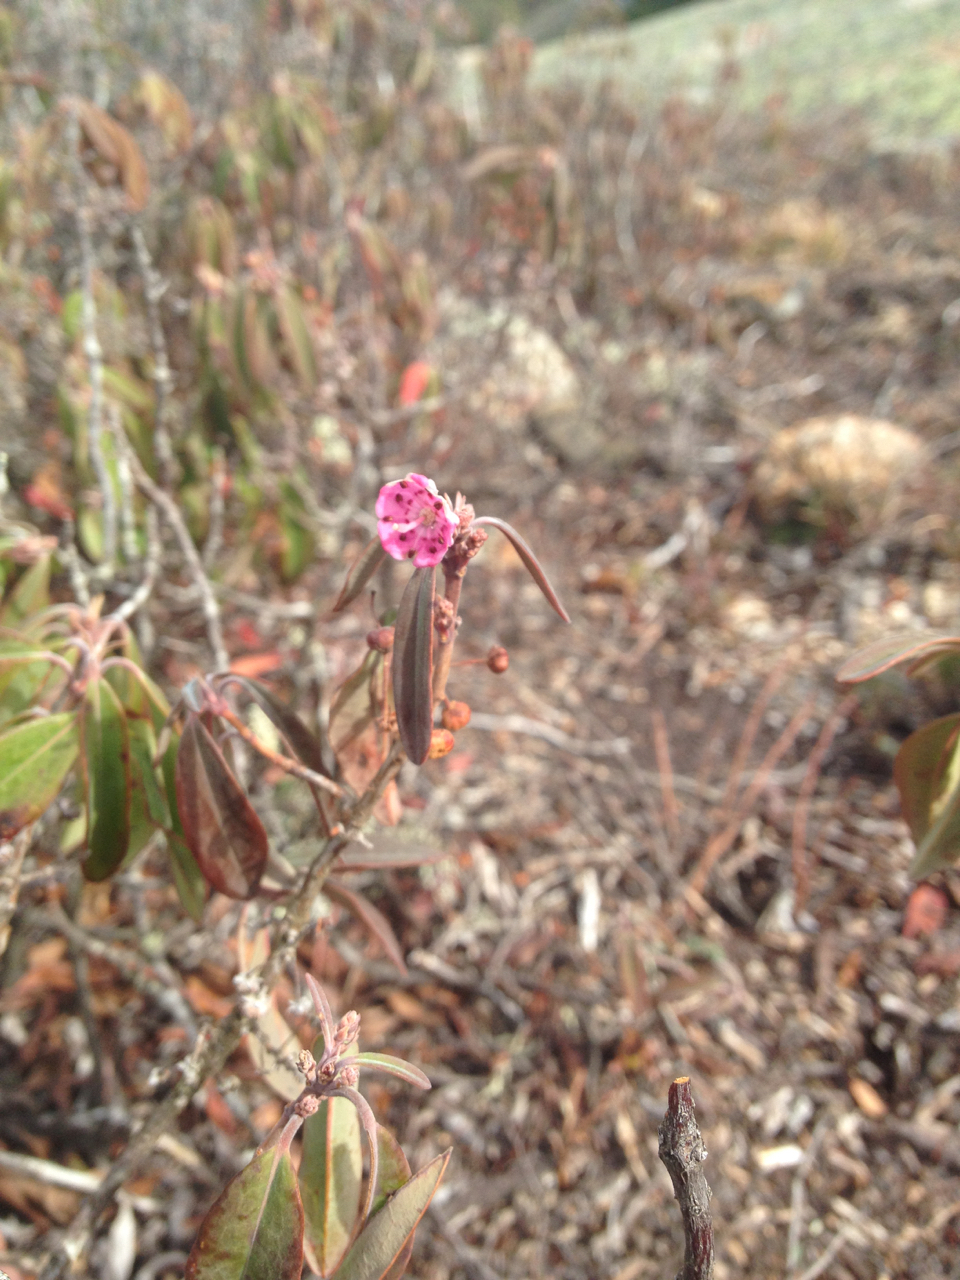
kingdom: Plantae
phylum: Tracheophyta
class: Magnoliopsida
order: Ericales
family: Ericaceae
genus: Kalmia
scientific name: Kalmia angustifolia
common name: Sheep-laurel
